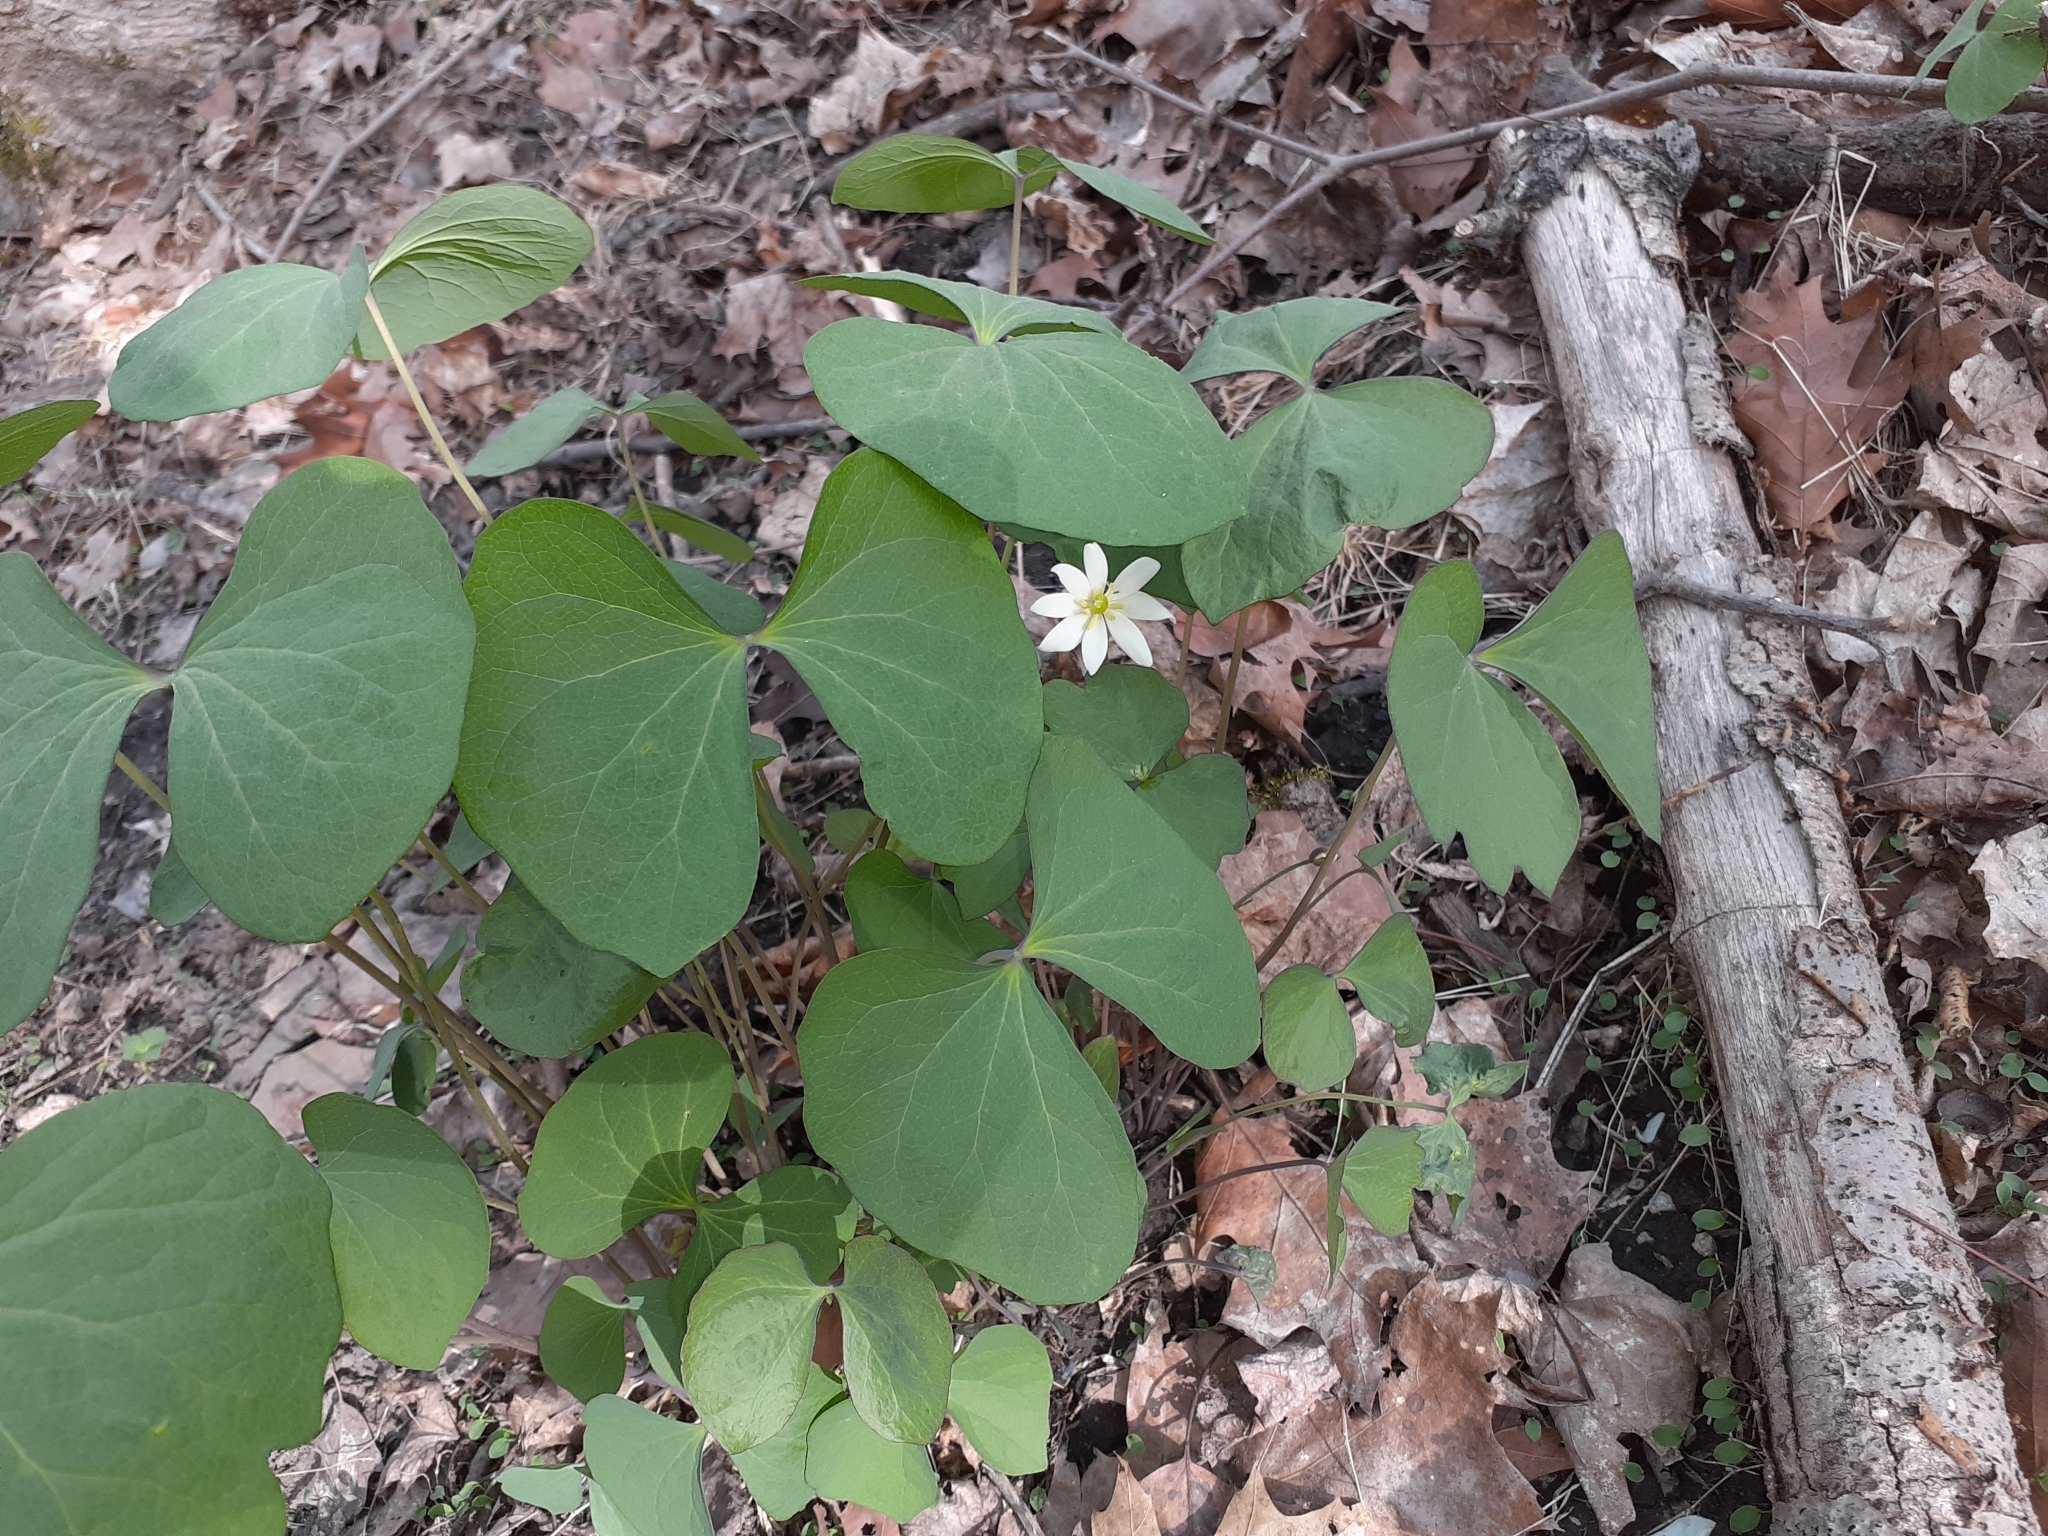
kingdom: Plantae
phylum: Tracheophyta
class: Magnoliopsida
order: Ranunculales
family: Berberidaceae
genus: Jeffersonia
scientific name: Jeffersonia diphylla
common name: Rheumatism-root
